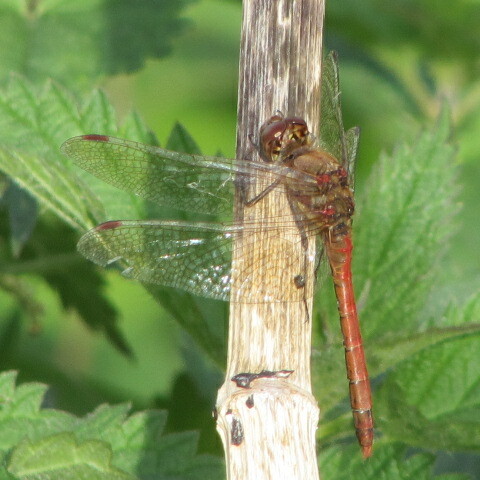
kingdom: Animalia
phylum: Arthropoda
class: Insecta
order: Odonata
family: Libellulidae
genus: Sympetrum
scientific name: Sympetrum striolatum
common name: Common darter
